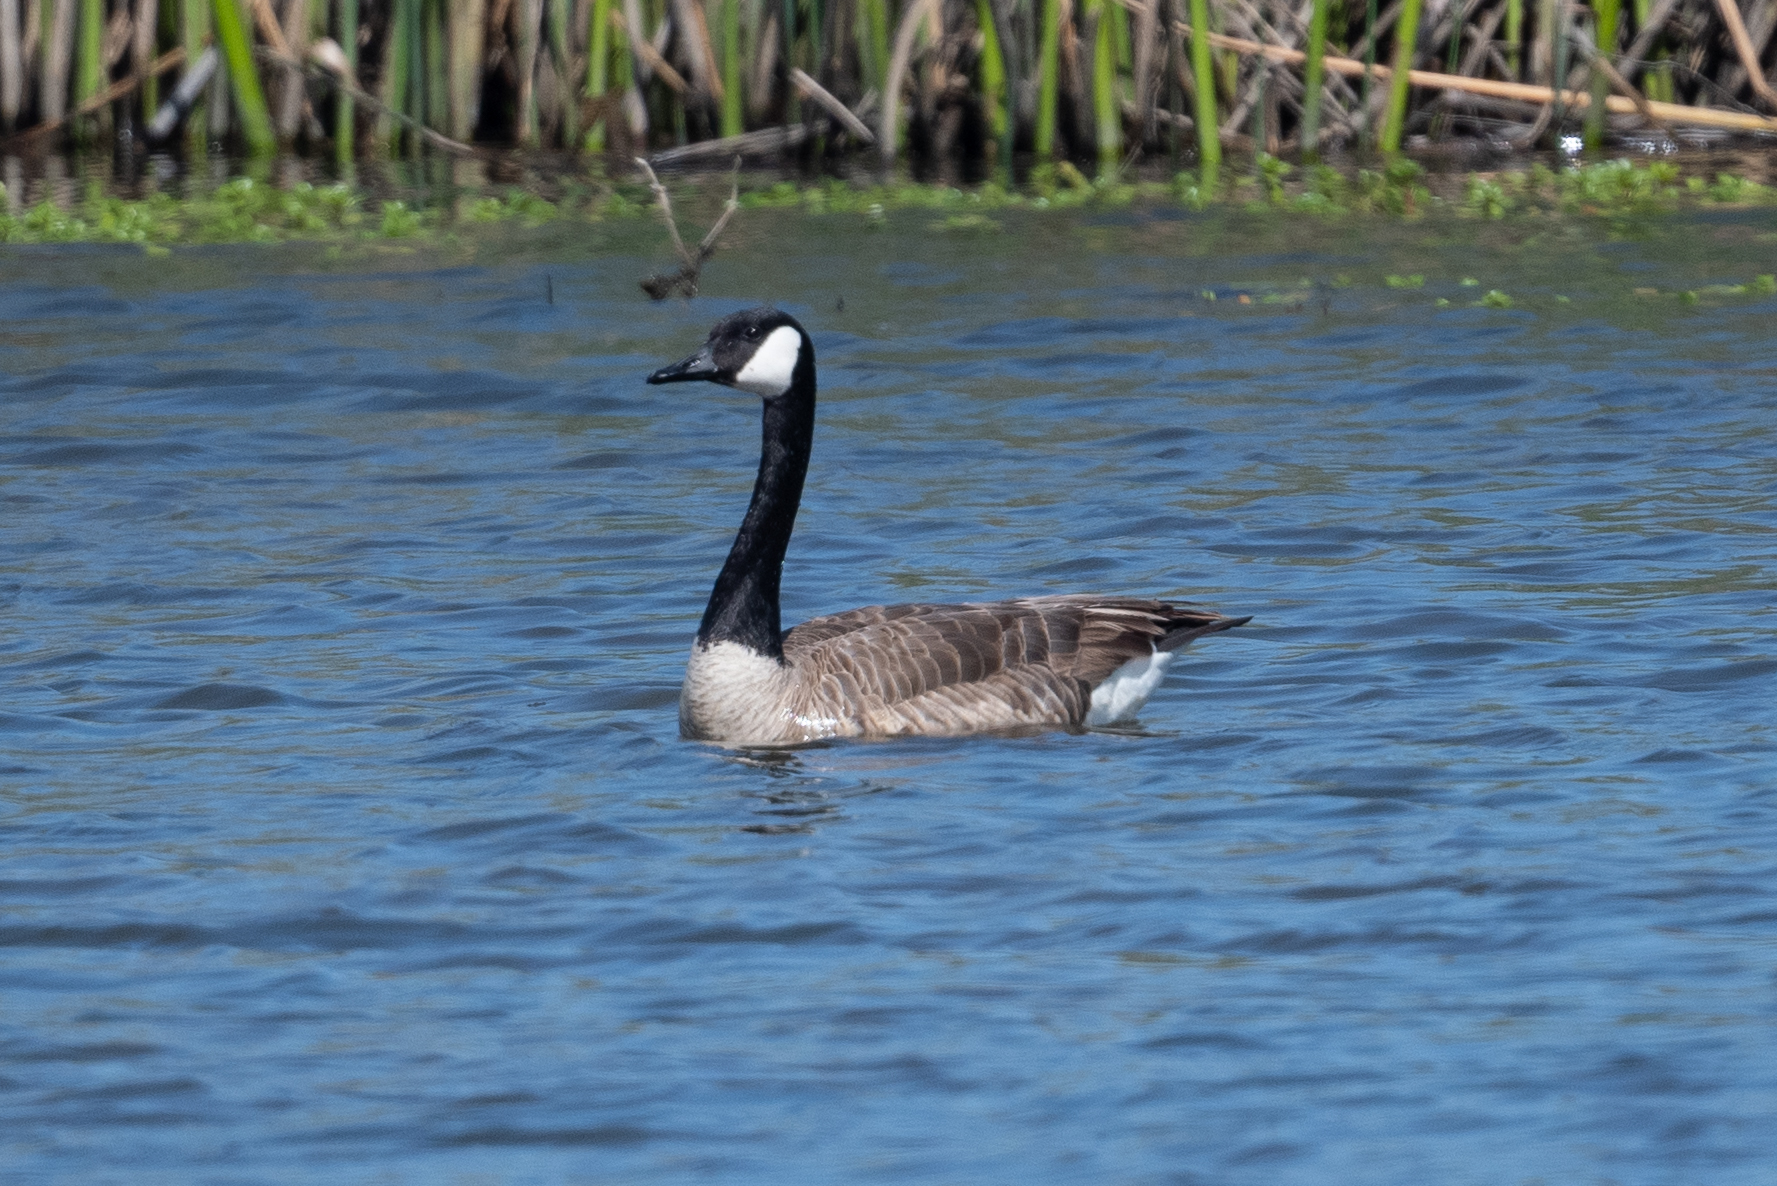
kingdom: Animalia
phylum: Chordata
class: Aves
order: Anseriformes
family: Anatidae
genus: Branta
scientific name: Branta canadensis
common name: Canada goose
